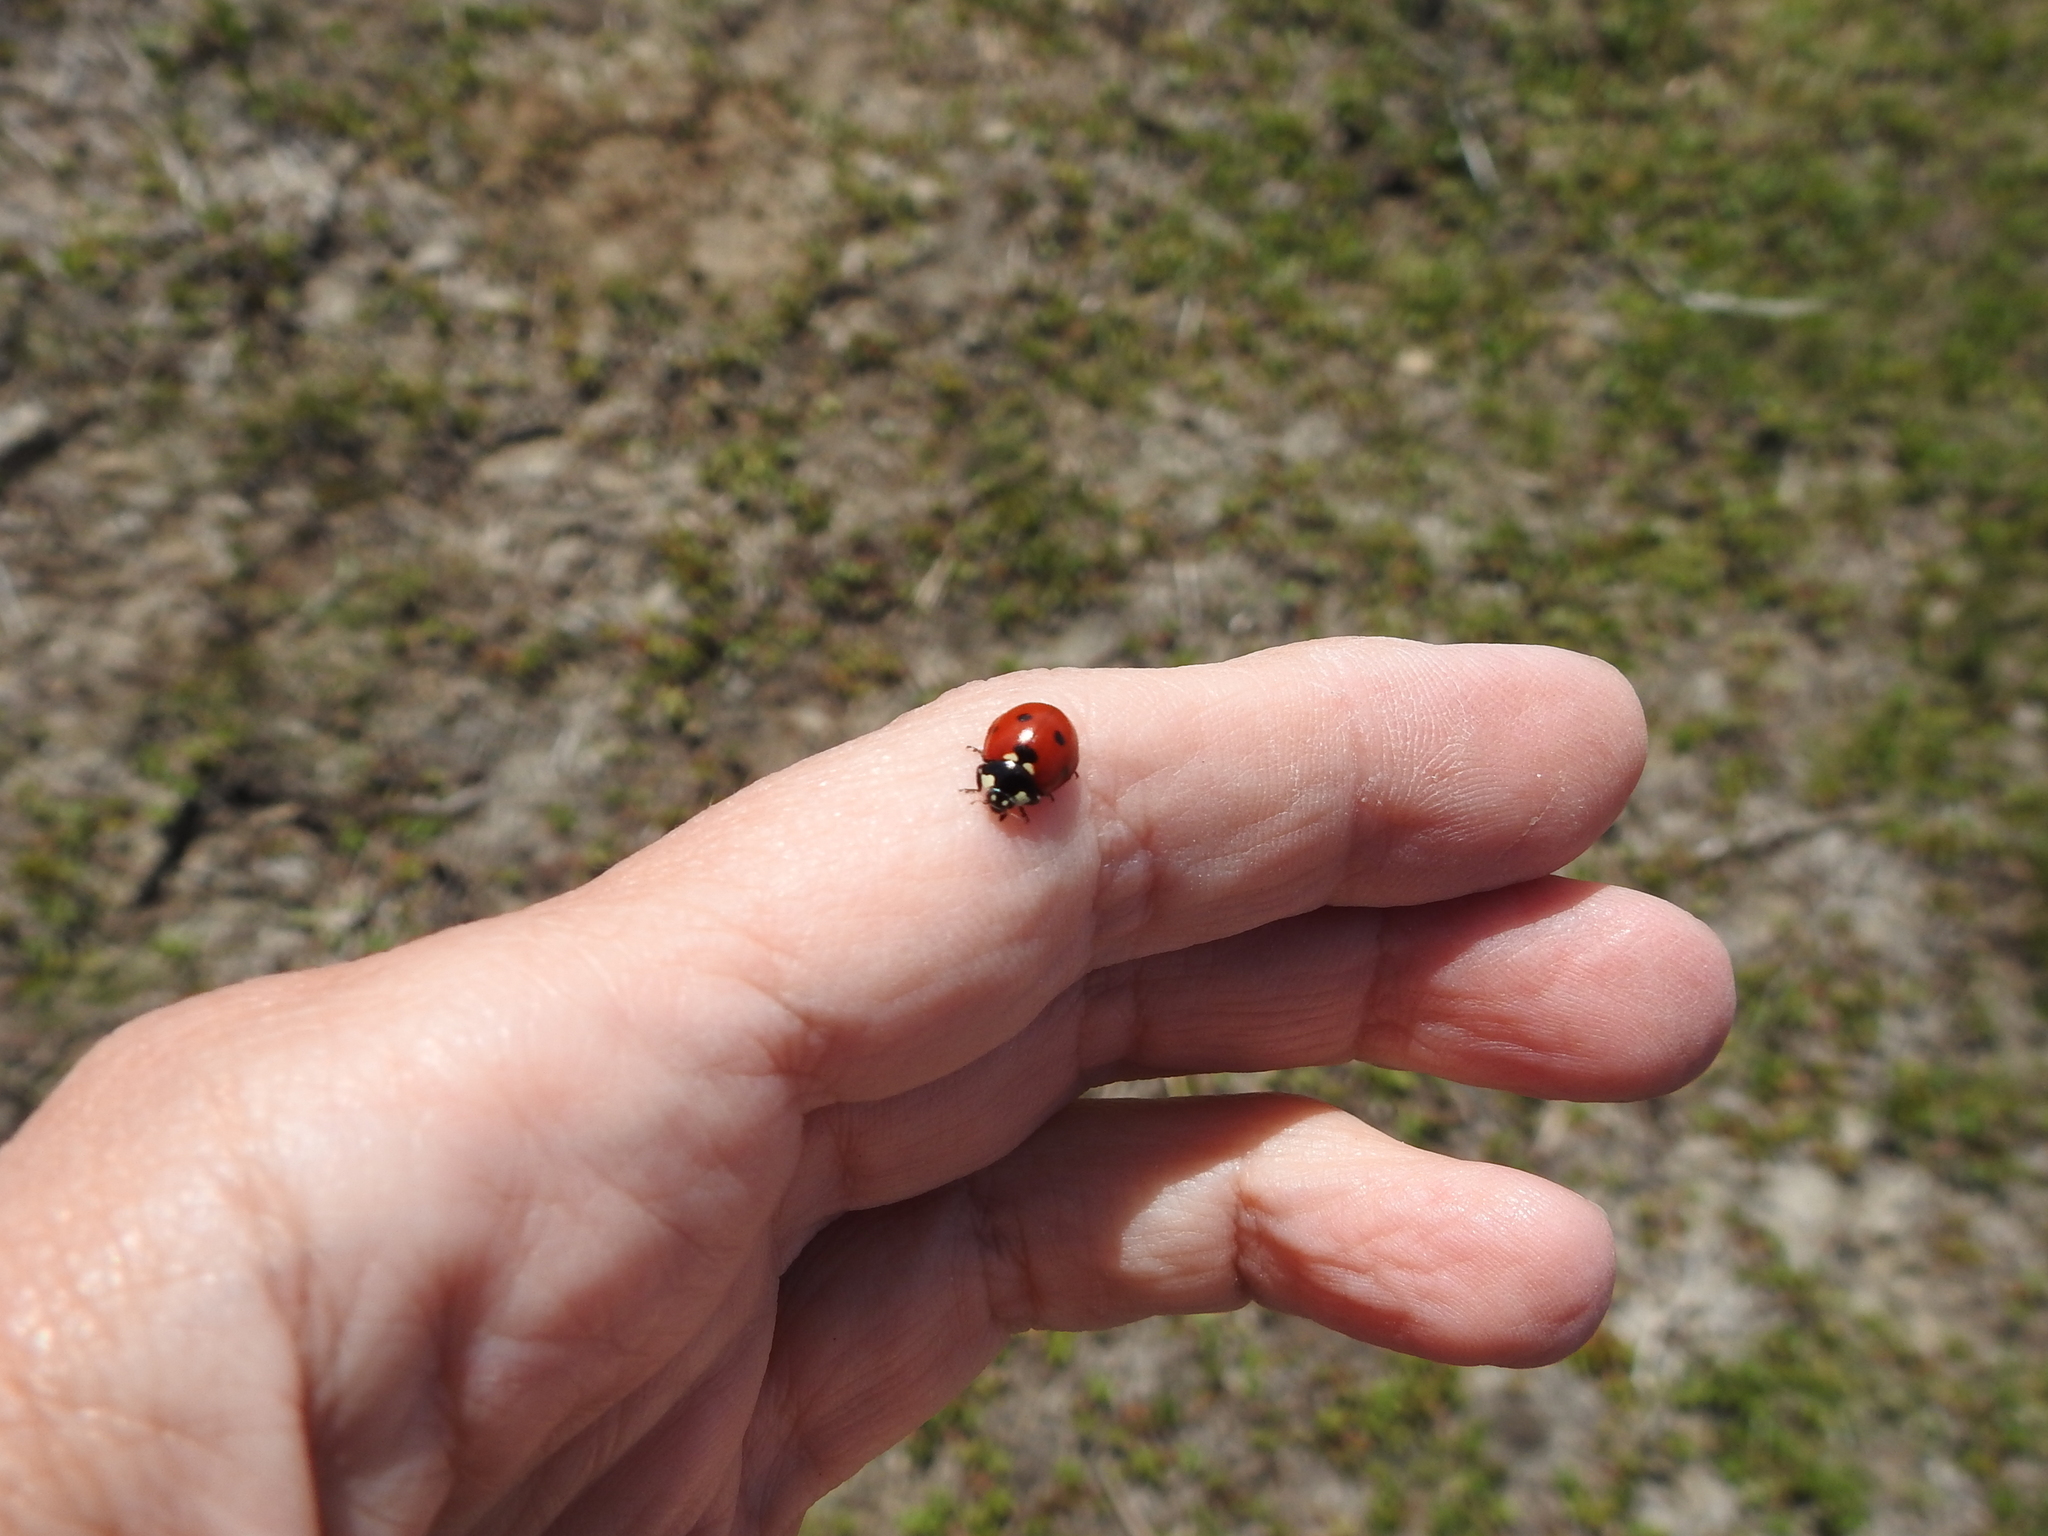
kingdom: Animalia
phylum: Arthropoda
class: Insecta
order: Coleoptera
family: Coccinellidae
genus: Coccinella
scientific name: Coccinella septempunctata
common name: Sevenspotted lady beetle
